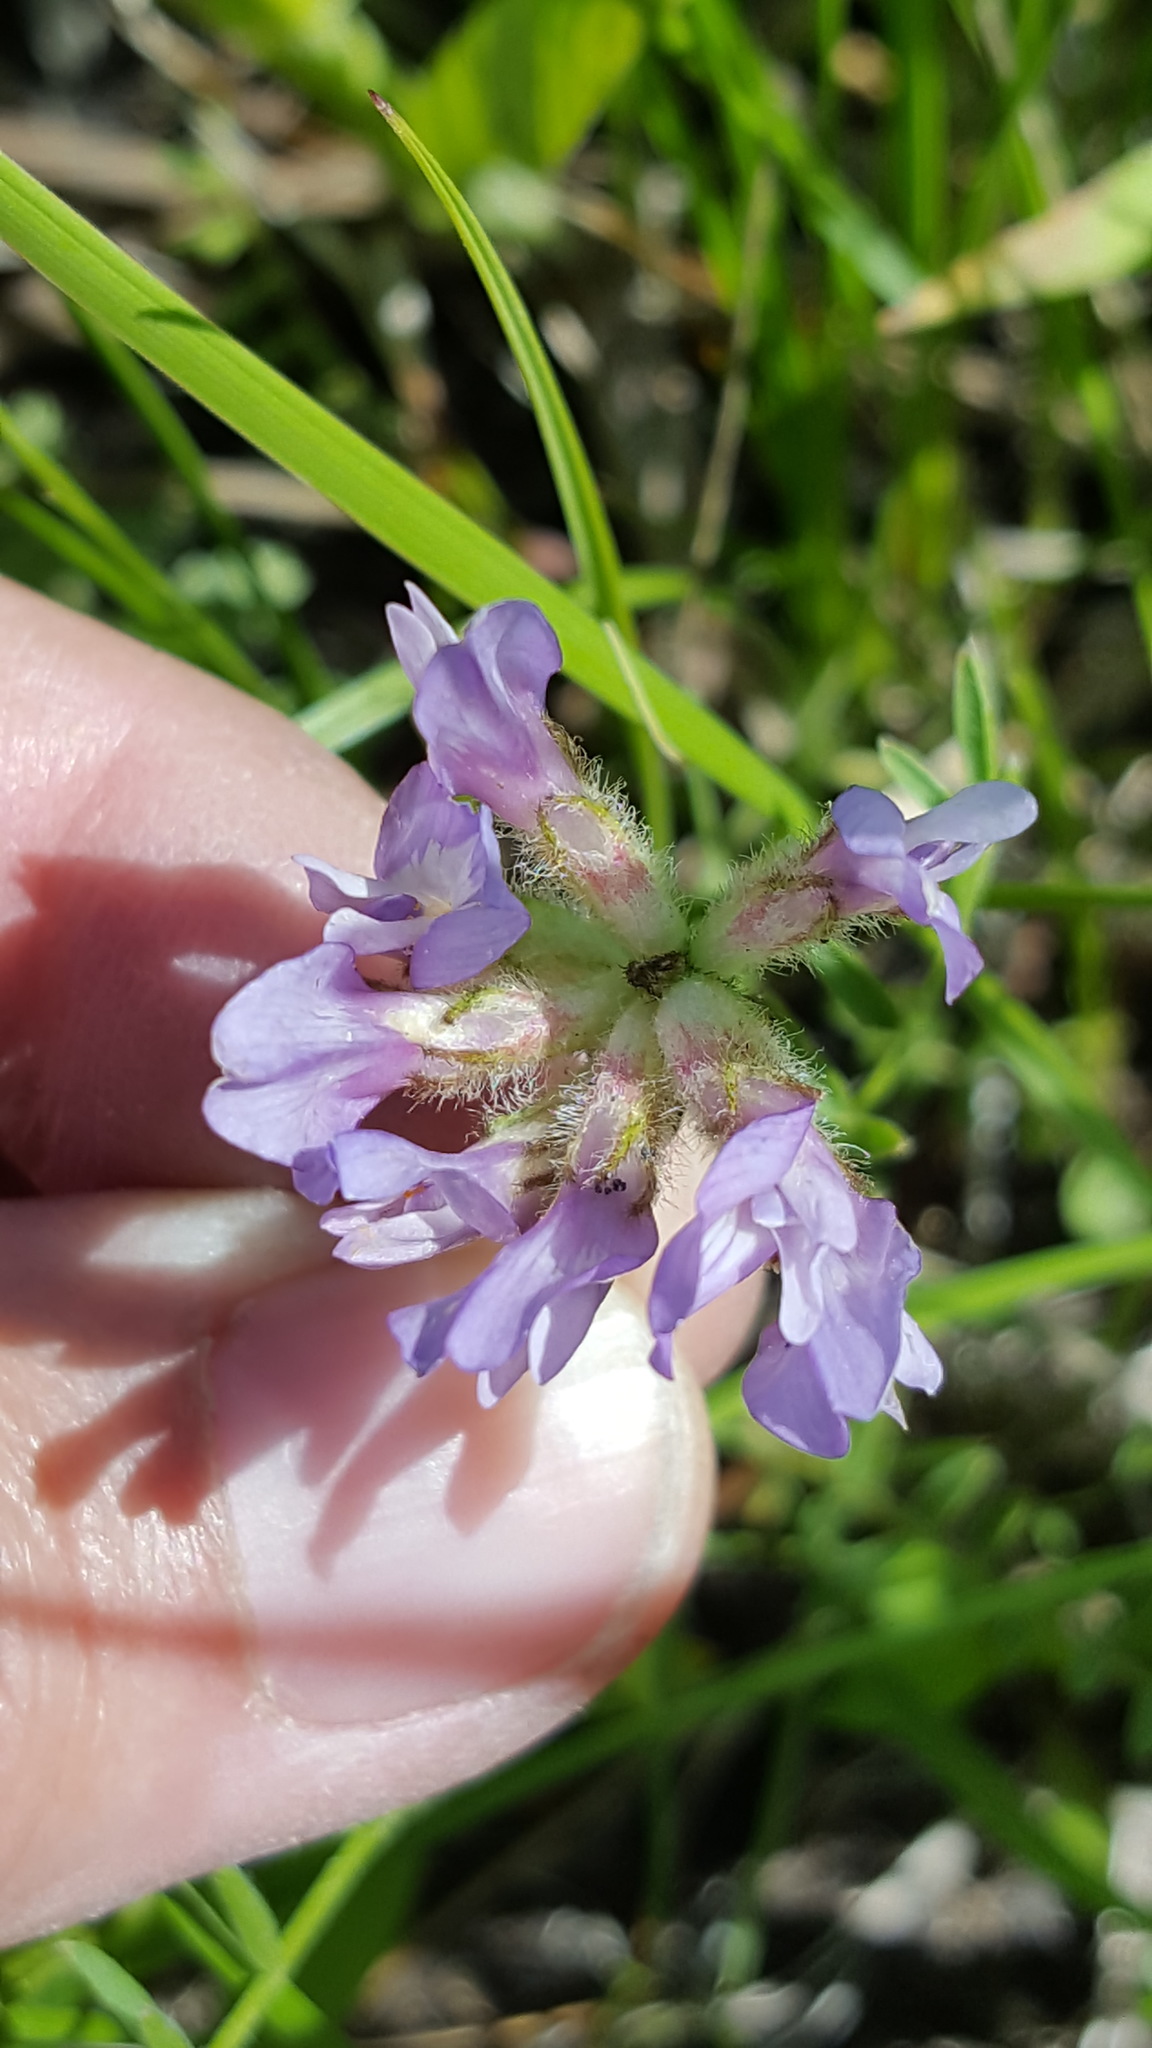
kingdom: Plantae
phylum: Tracheophyta
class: Magnoliopsida
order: Fabales
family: Fabaceae
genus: Astragalus
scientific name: Astragalus agrestis
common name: Field milk-vetch
